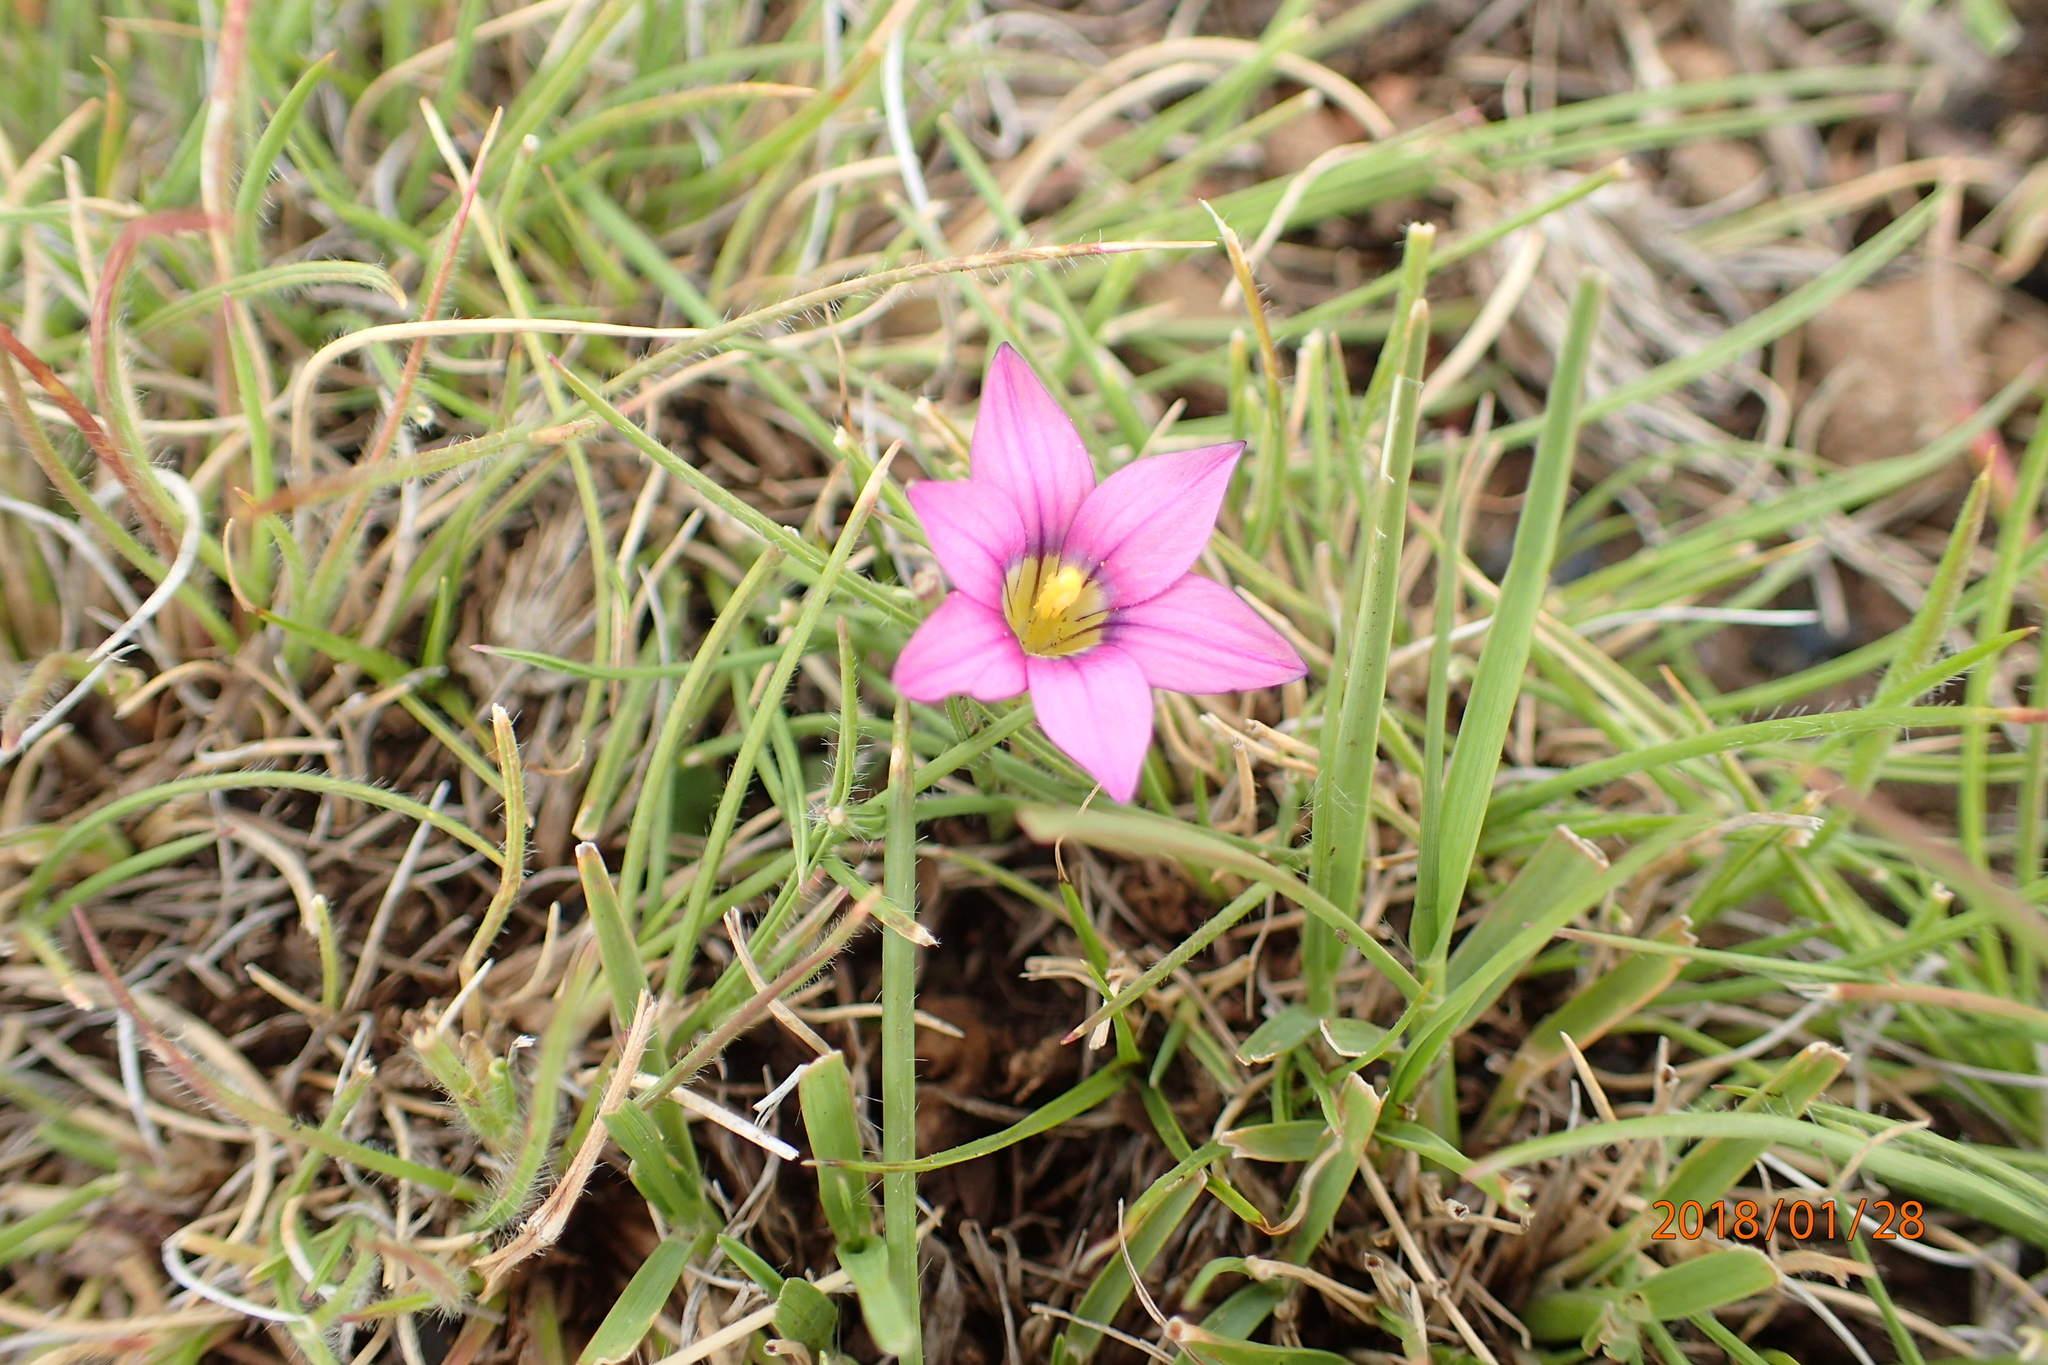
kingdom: Plantae
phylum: Tracheophyta
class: Liliopsida
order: Asparagales
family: Iridaceae
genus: Romulea
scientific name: Romulea camerooniana
